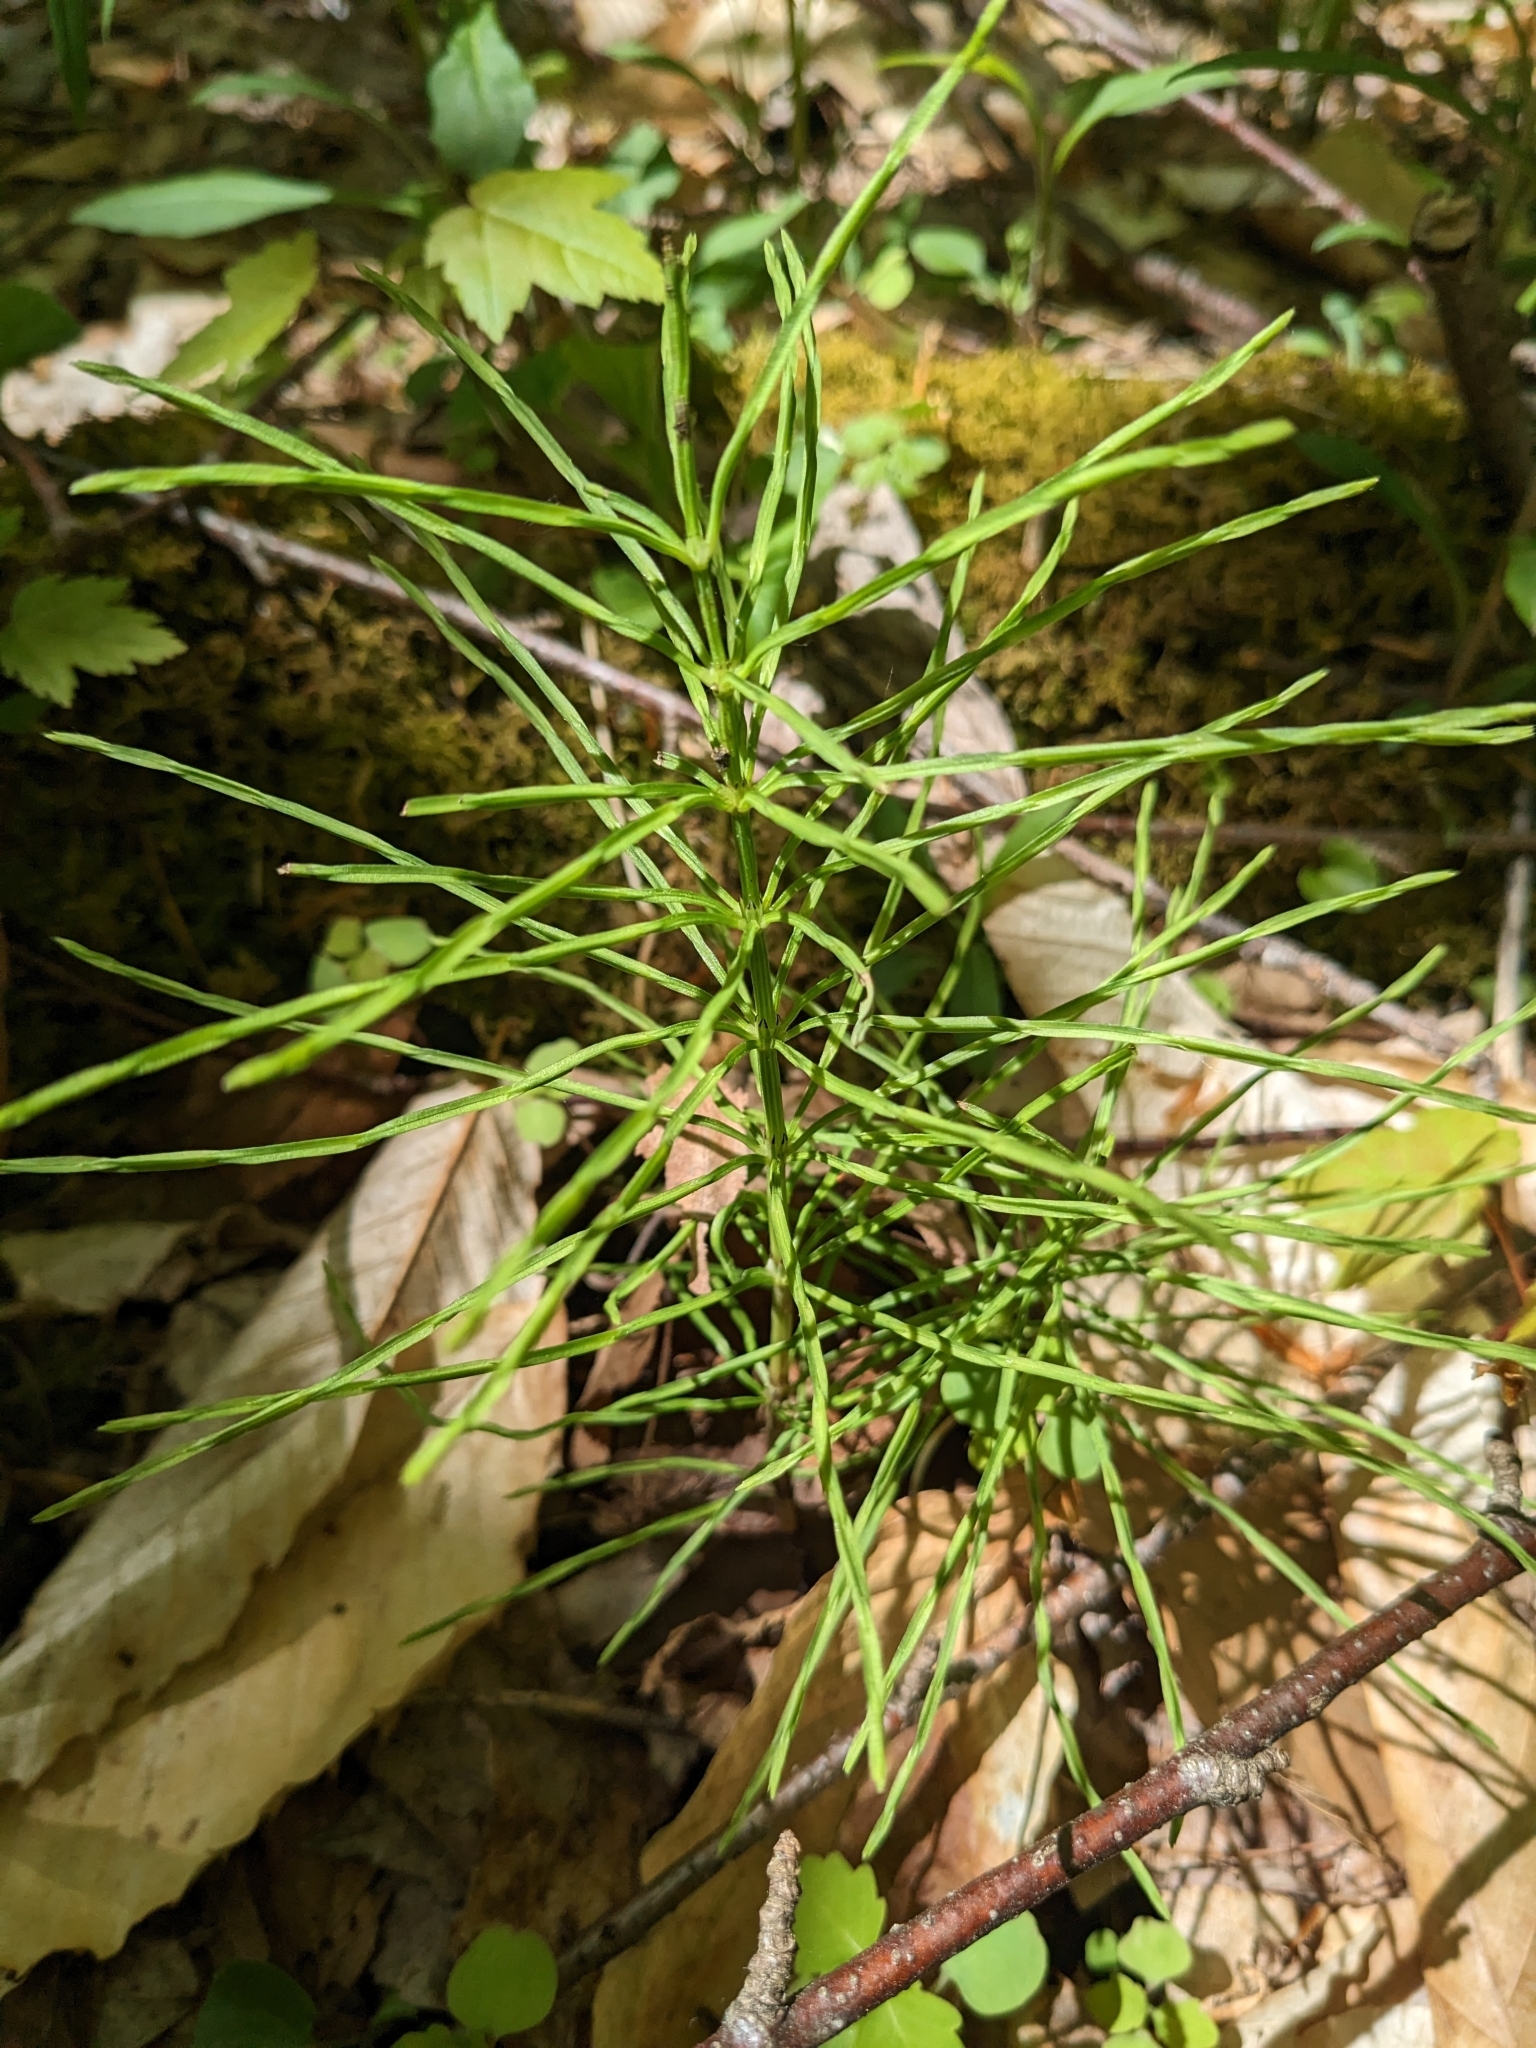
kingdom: Plantae
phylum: Tracheophyta
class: Polypodiopsida
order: Equisetales
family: Equisetaceae
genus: Equisetum
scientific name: Equisetum arvense
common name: Field horsetail
